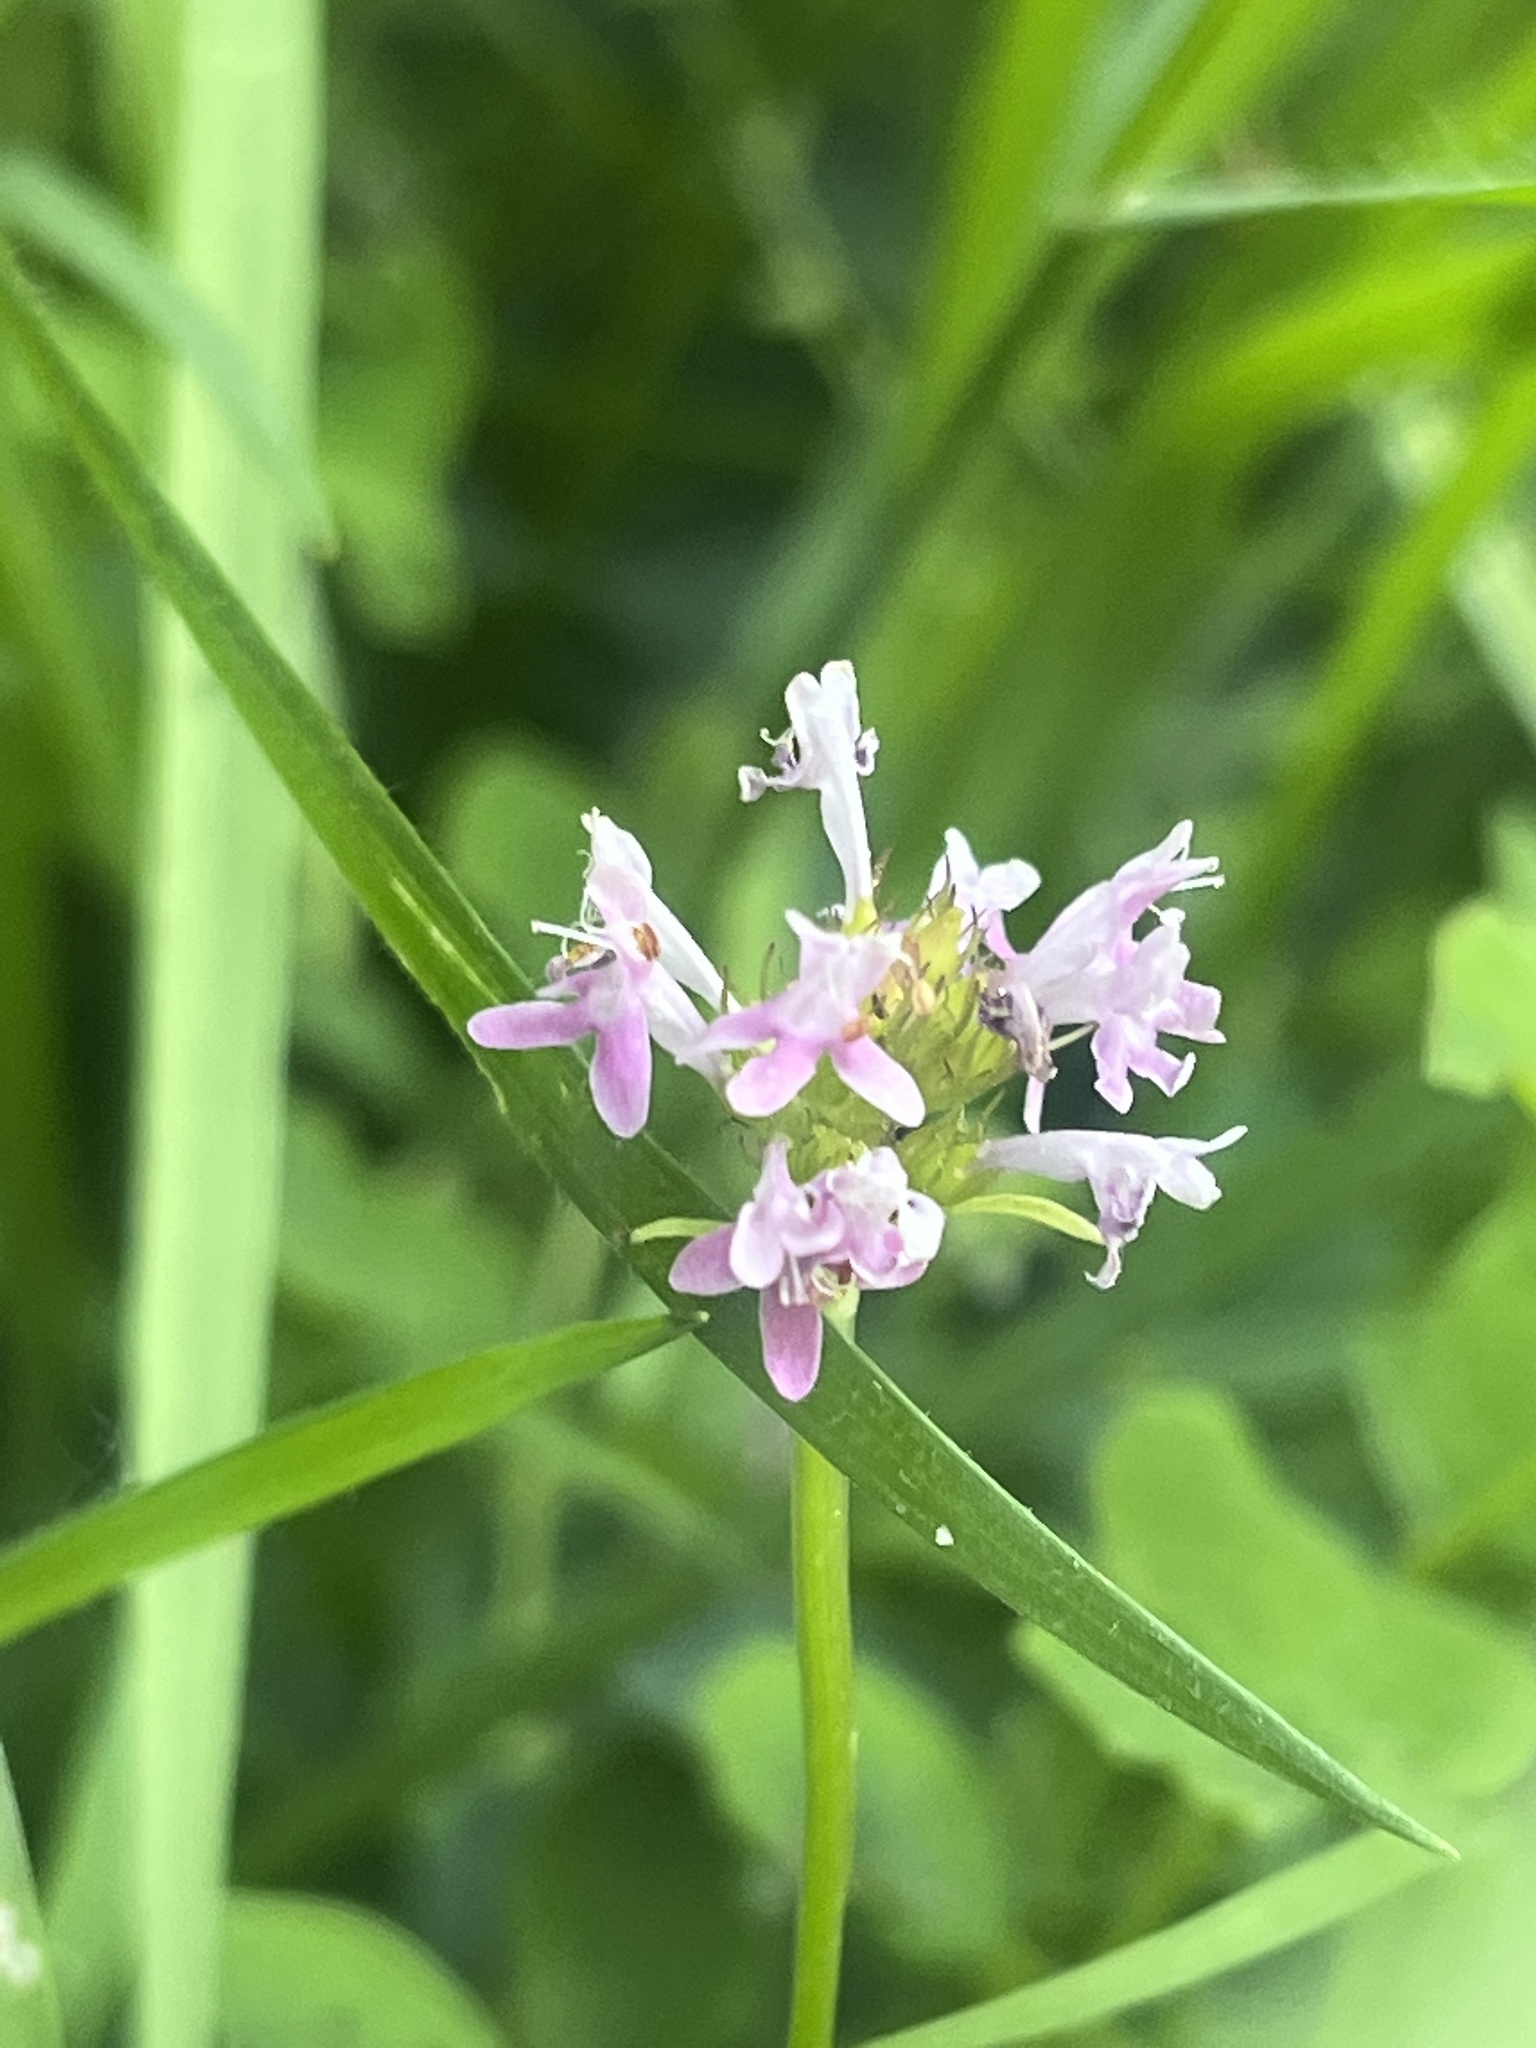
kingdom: Plantae
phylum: Tracheophyta
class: Magnoliopsida
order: Dipsacales
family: Caprifoliaceae
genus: Plectritis
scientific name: Plectritis congesta
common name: Pink plectritis
